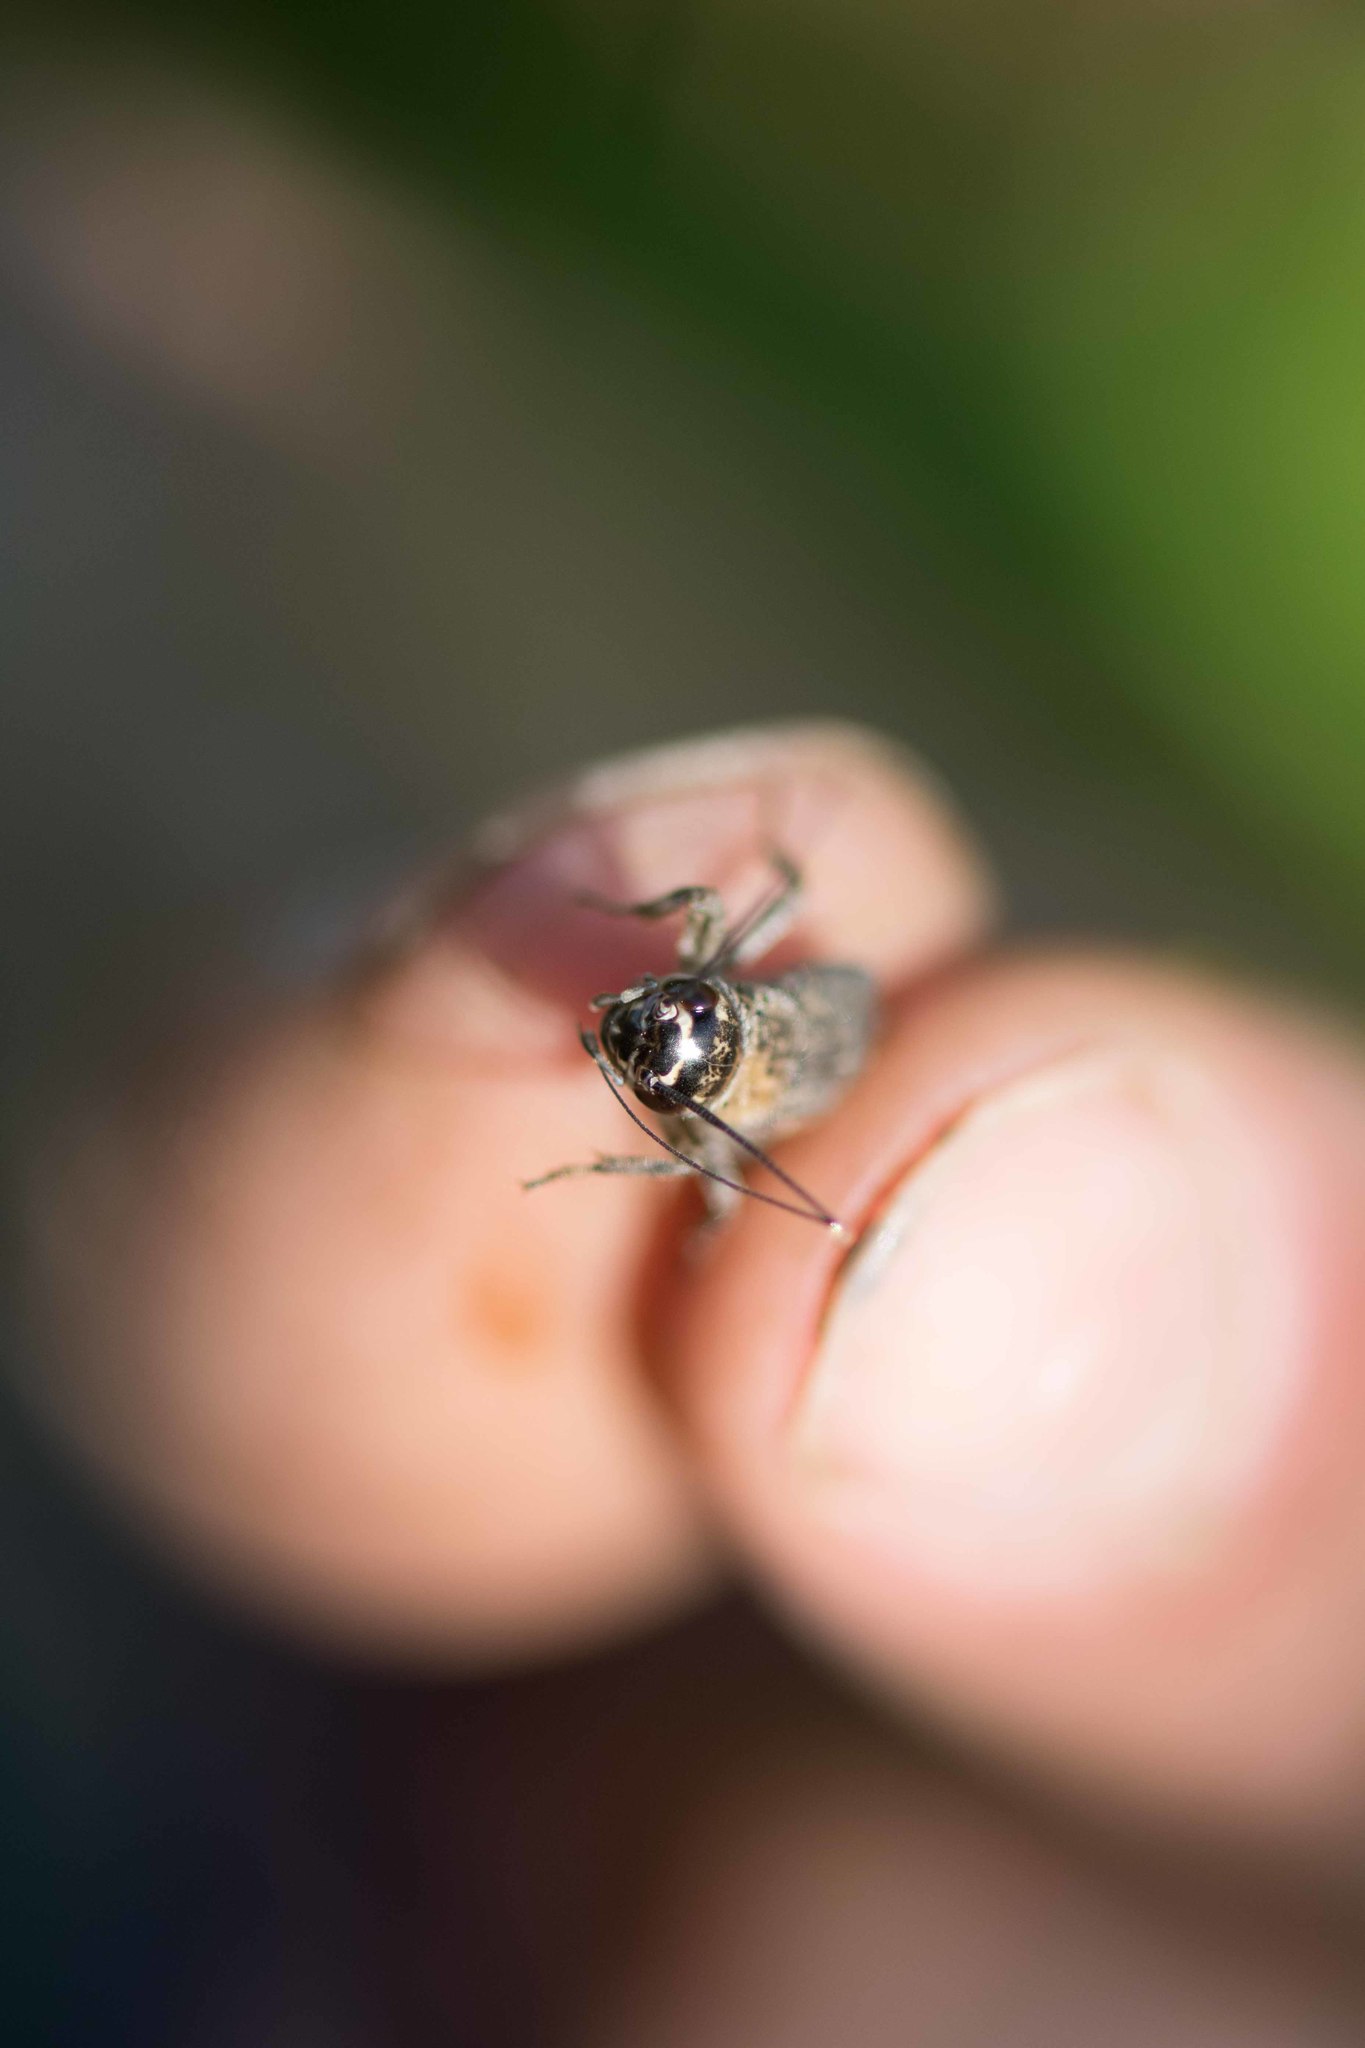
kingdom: Animalia
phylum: Arthropoda
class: Insecta
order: Orthoptera
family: Gryllidae
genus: Eumodicogryllus
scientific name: Eumodicogryllus bordigalensis
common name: Bordeaux cricket
